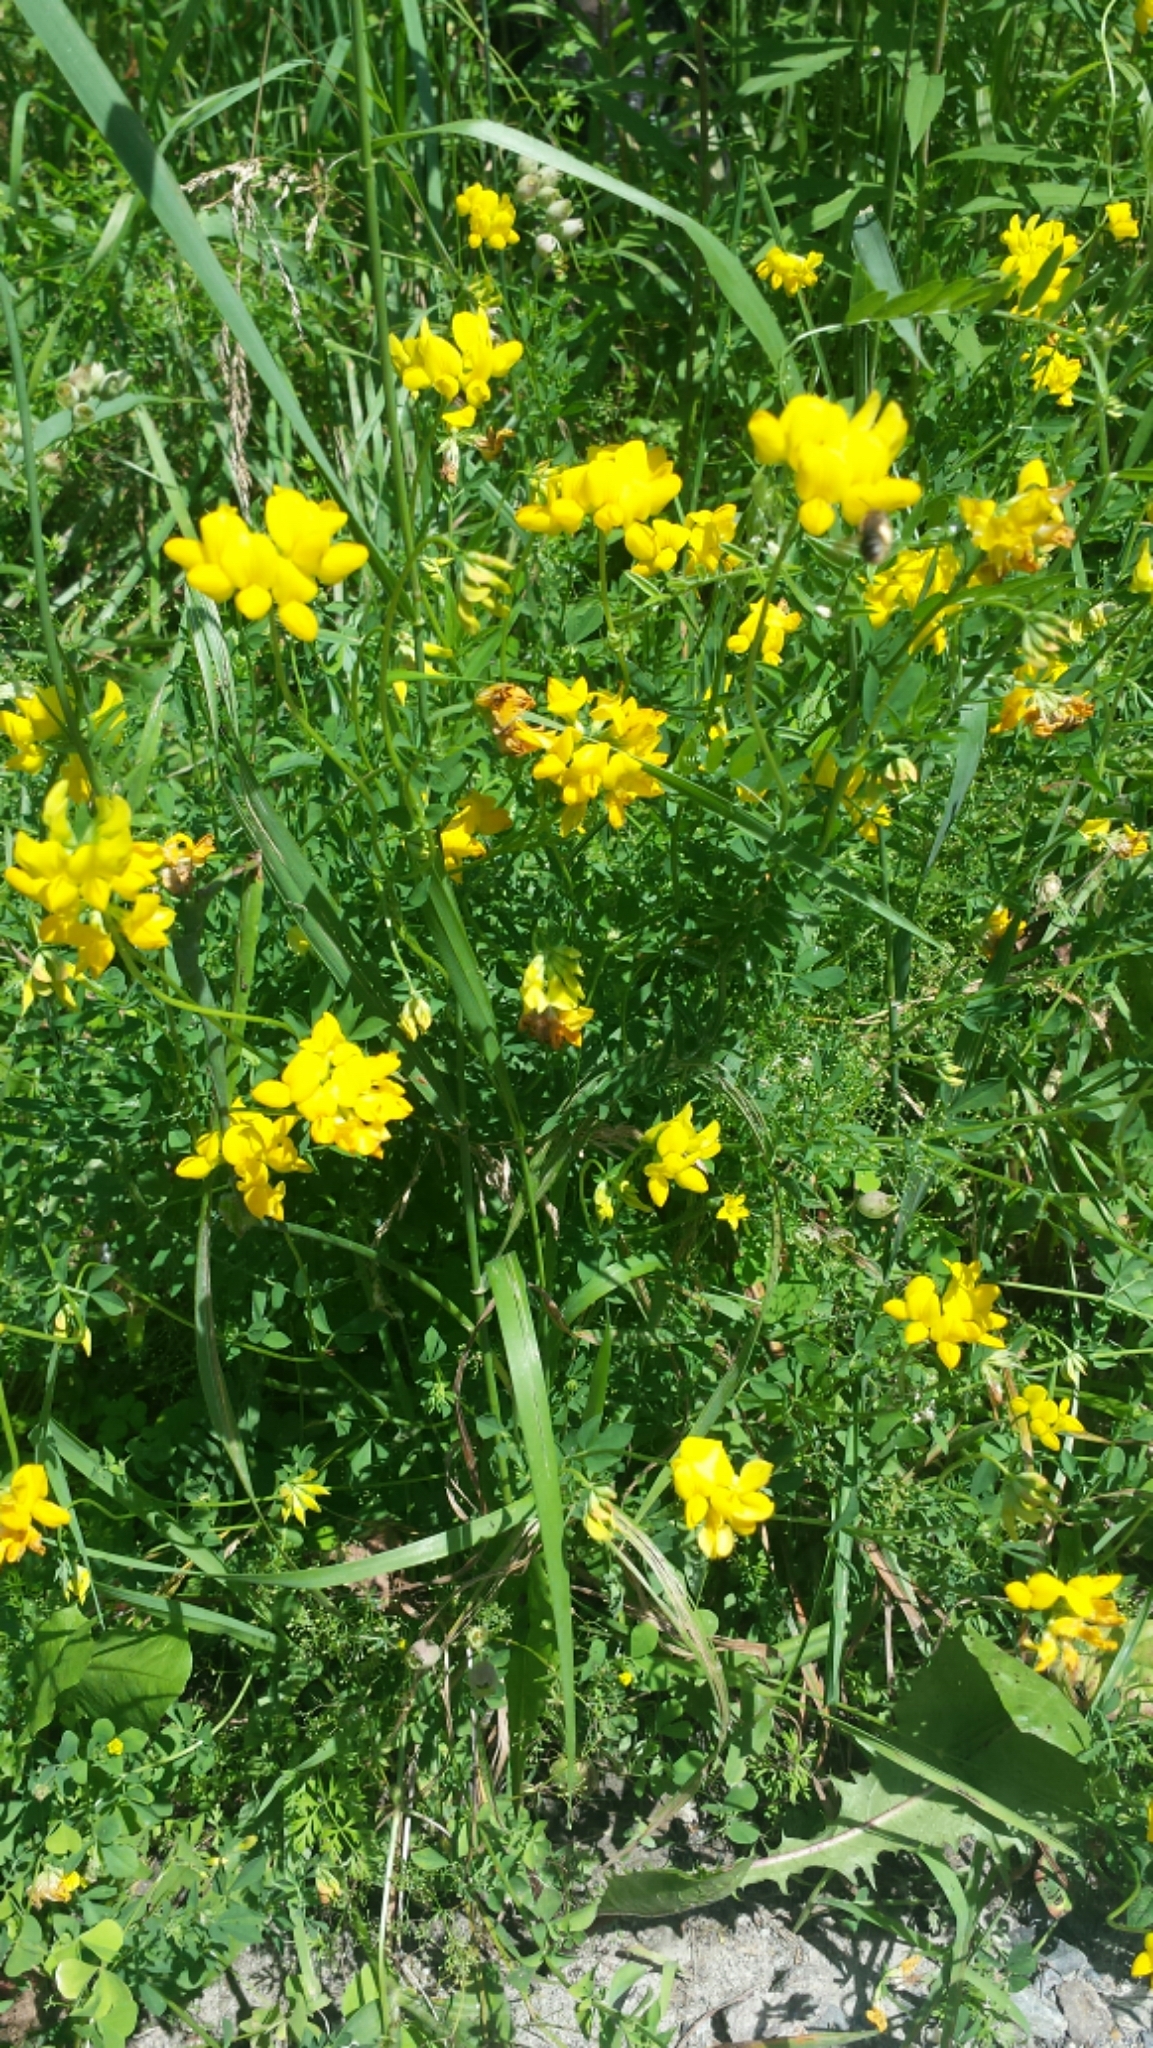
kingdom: Plantae
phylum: Tracheophyta
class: Magnoliopsida
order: Fabales
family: Fabaceae
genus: Lotus
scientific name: Lotus corniculatus
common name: Common bird's-foot-trefoil
